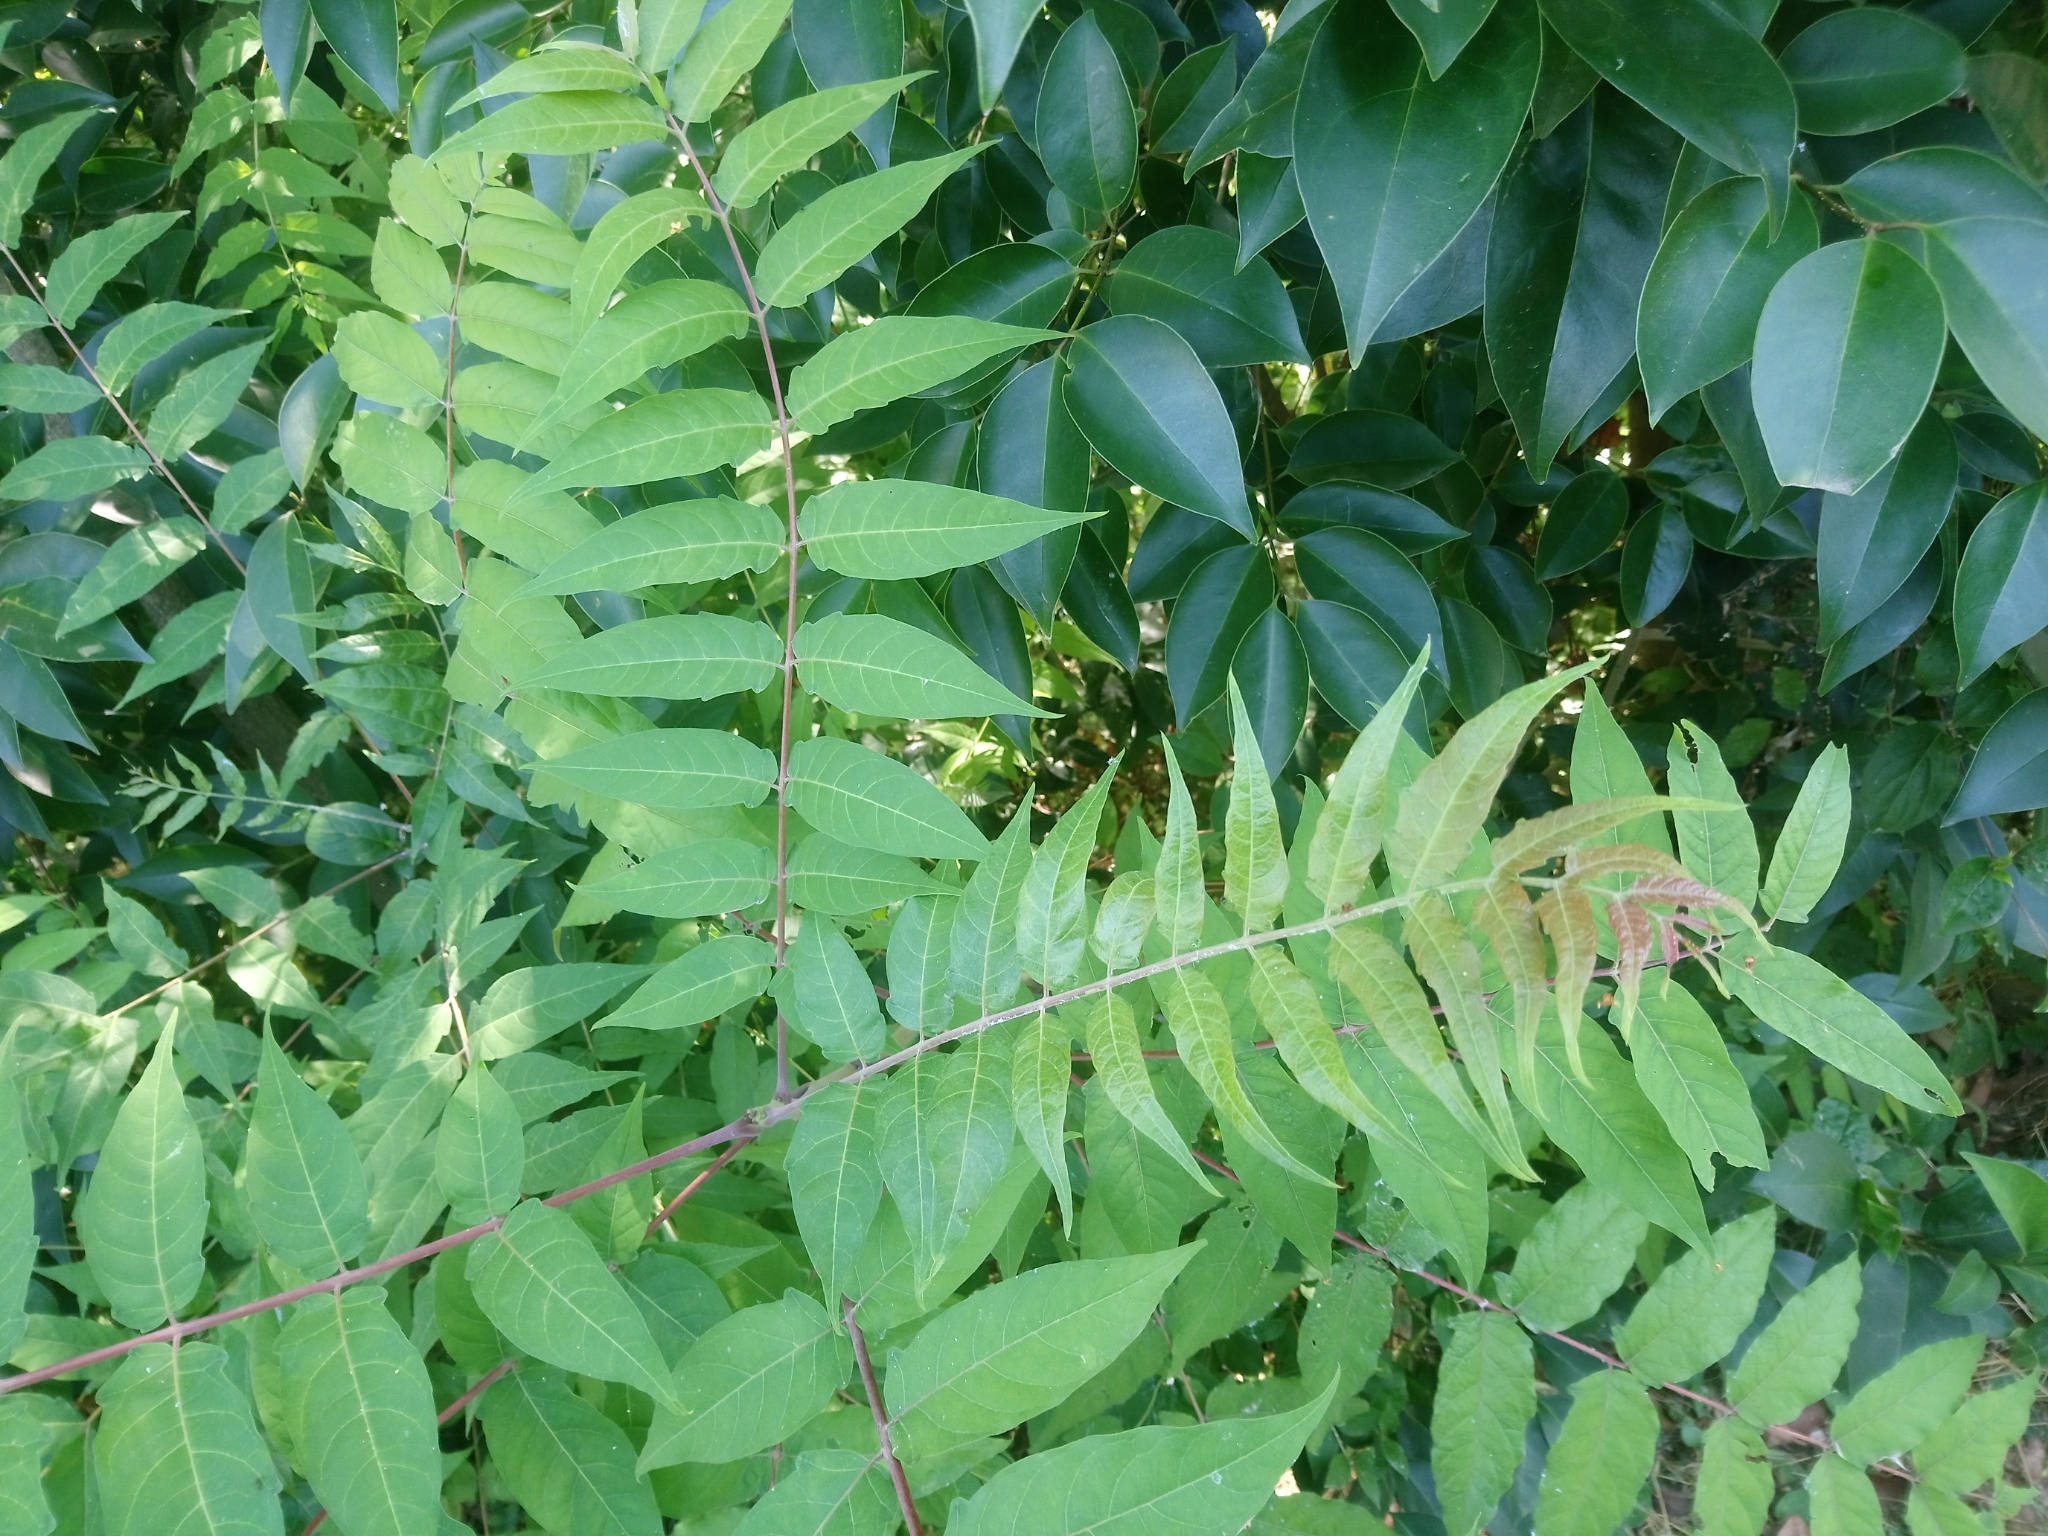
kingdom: Plantae
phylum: Tracheophyta
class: Magnoliopsida
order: Sapindales
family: Simaroubaceae
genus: Ailanthus
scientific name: Ailanthus altissima
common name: Tree-of-heaven
